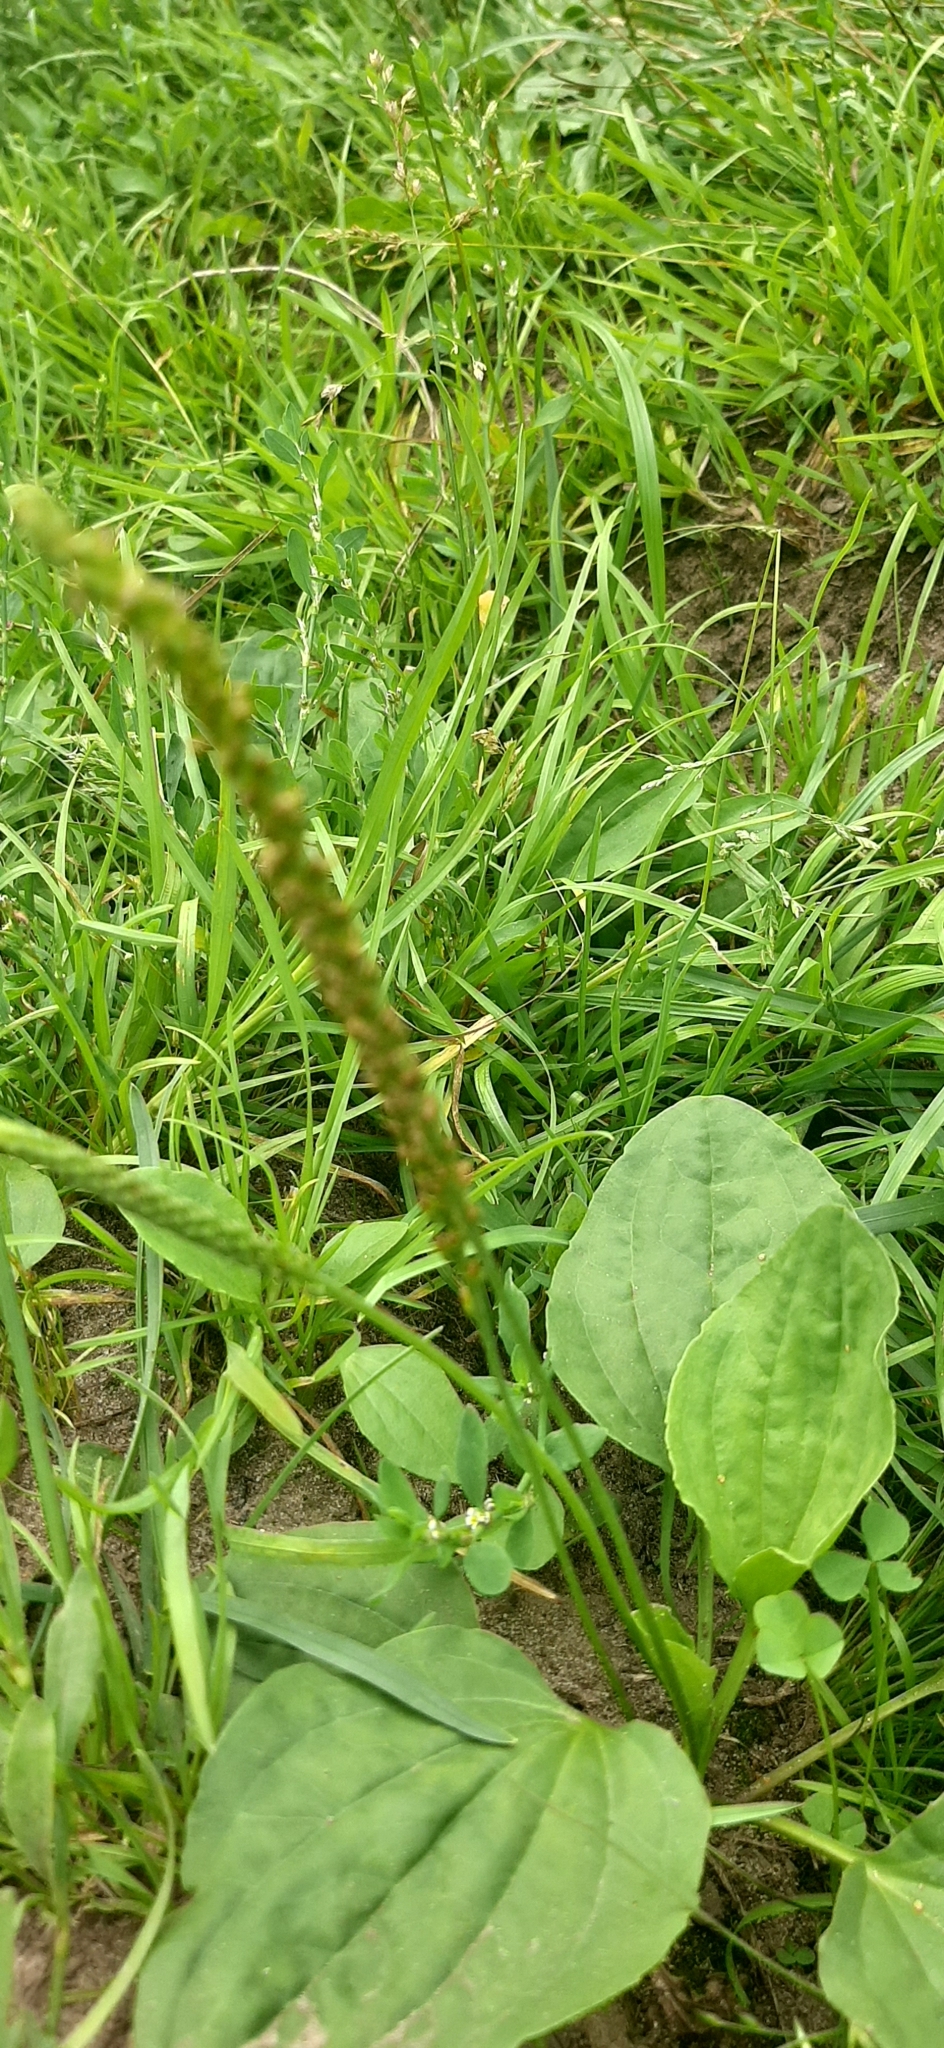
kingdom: Plantae
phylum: Tracheophyta
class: Magnoliopsida
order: Lamiales
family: Plantaginaceae
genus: Plantago
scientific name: Plantago major
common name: Common plantain
